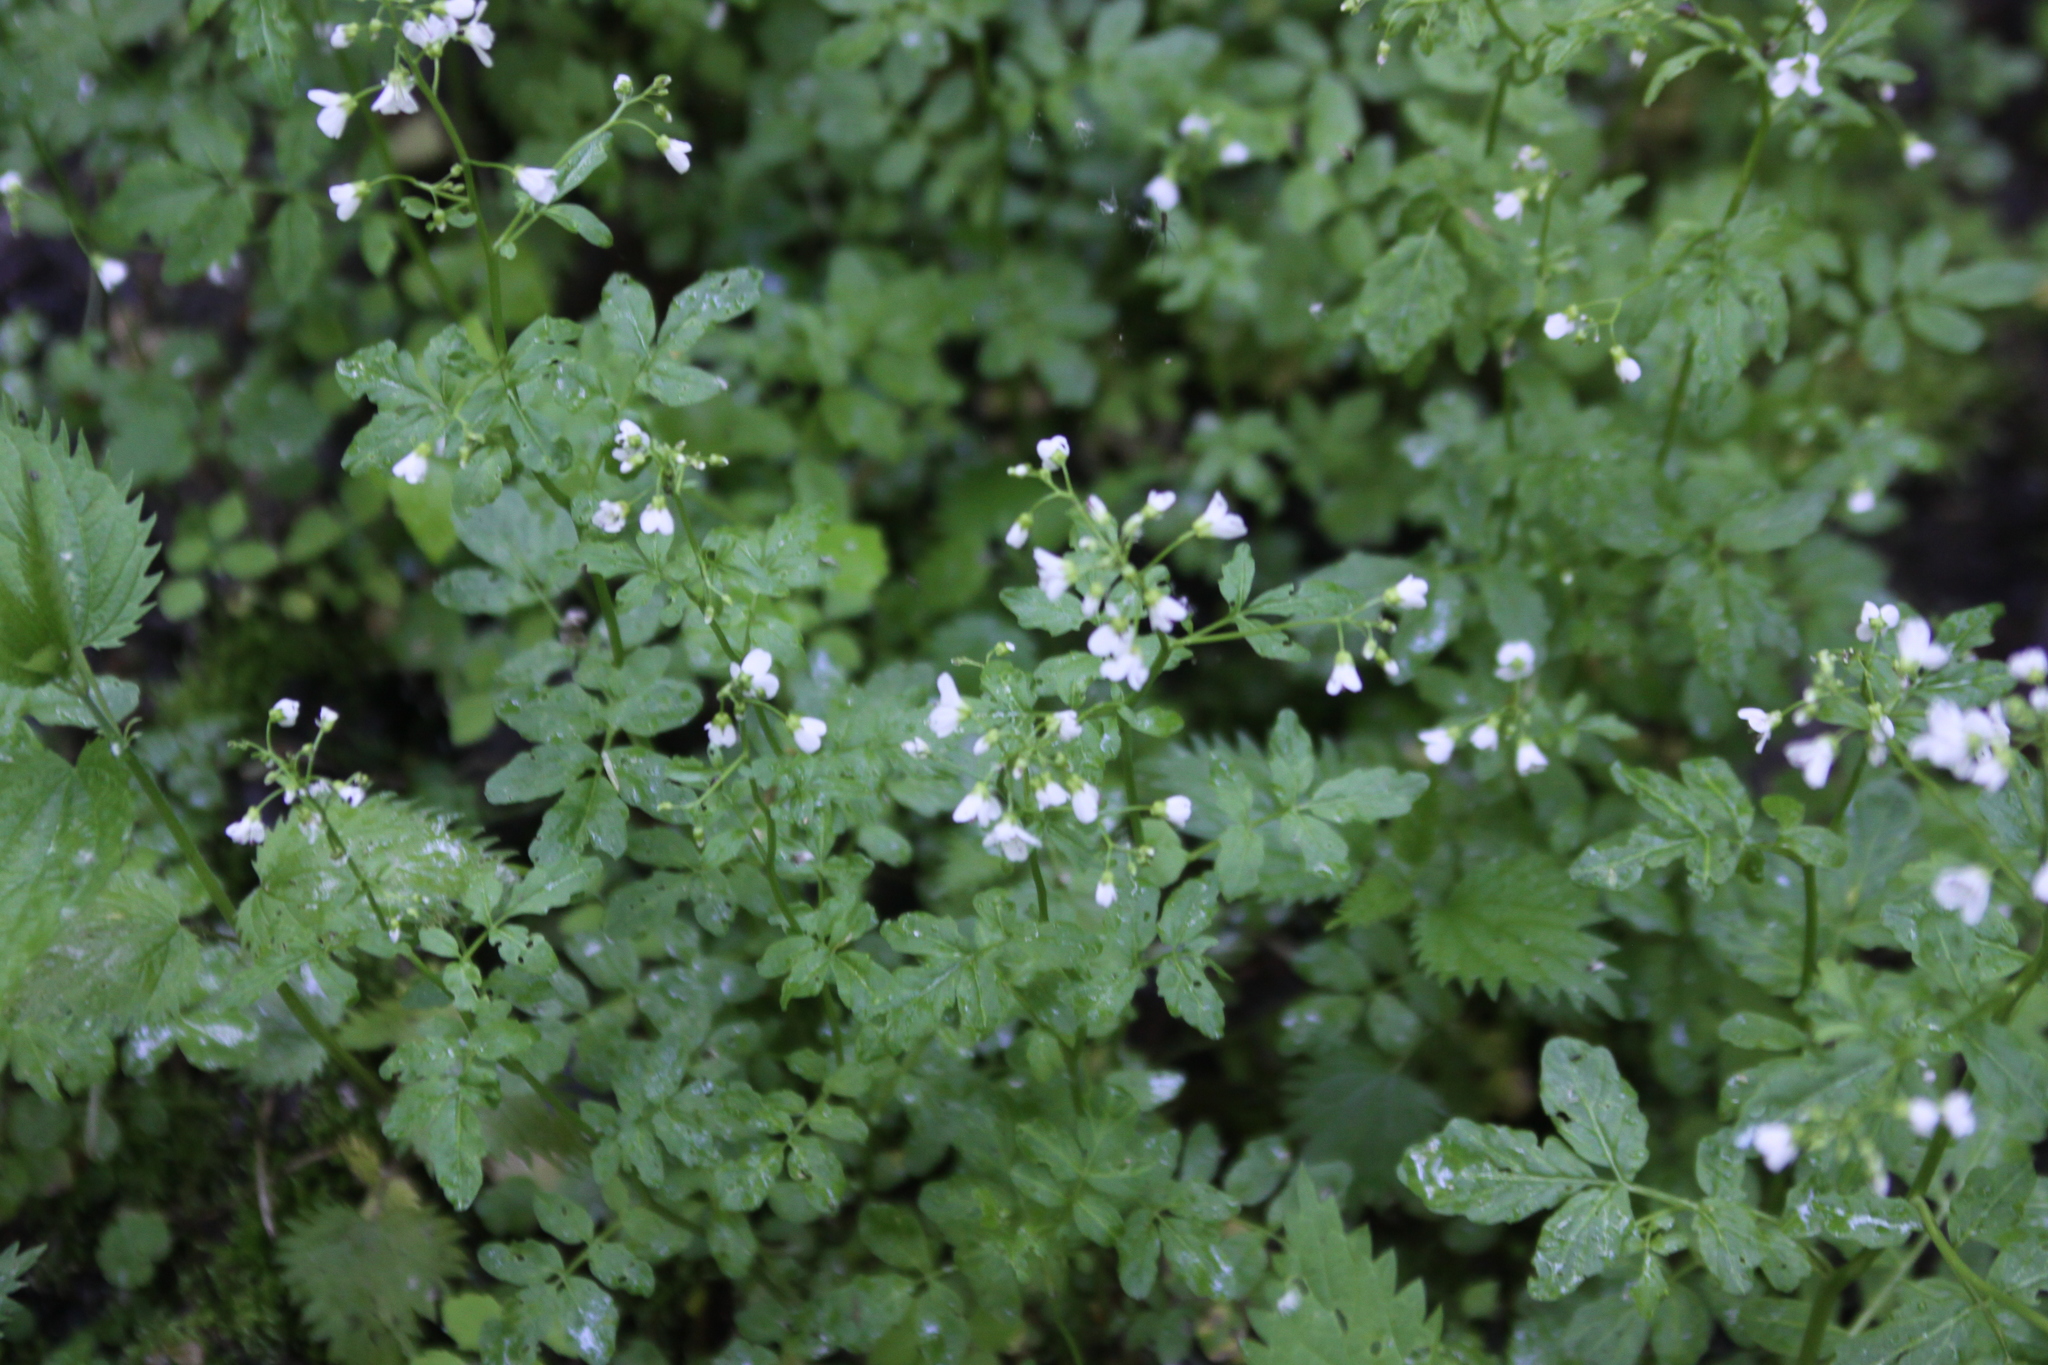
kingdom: Plantae
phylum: Tracheophyta
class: Magnoliopsida
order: Brassicales
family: Brassicaceae
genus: Cardamine
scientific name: Cardamine amara
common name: Large bitter-cress
